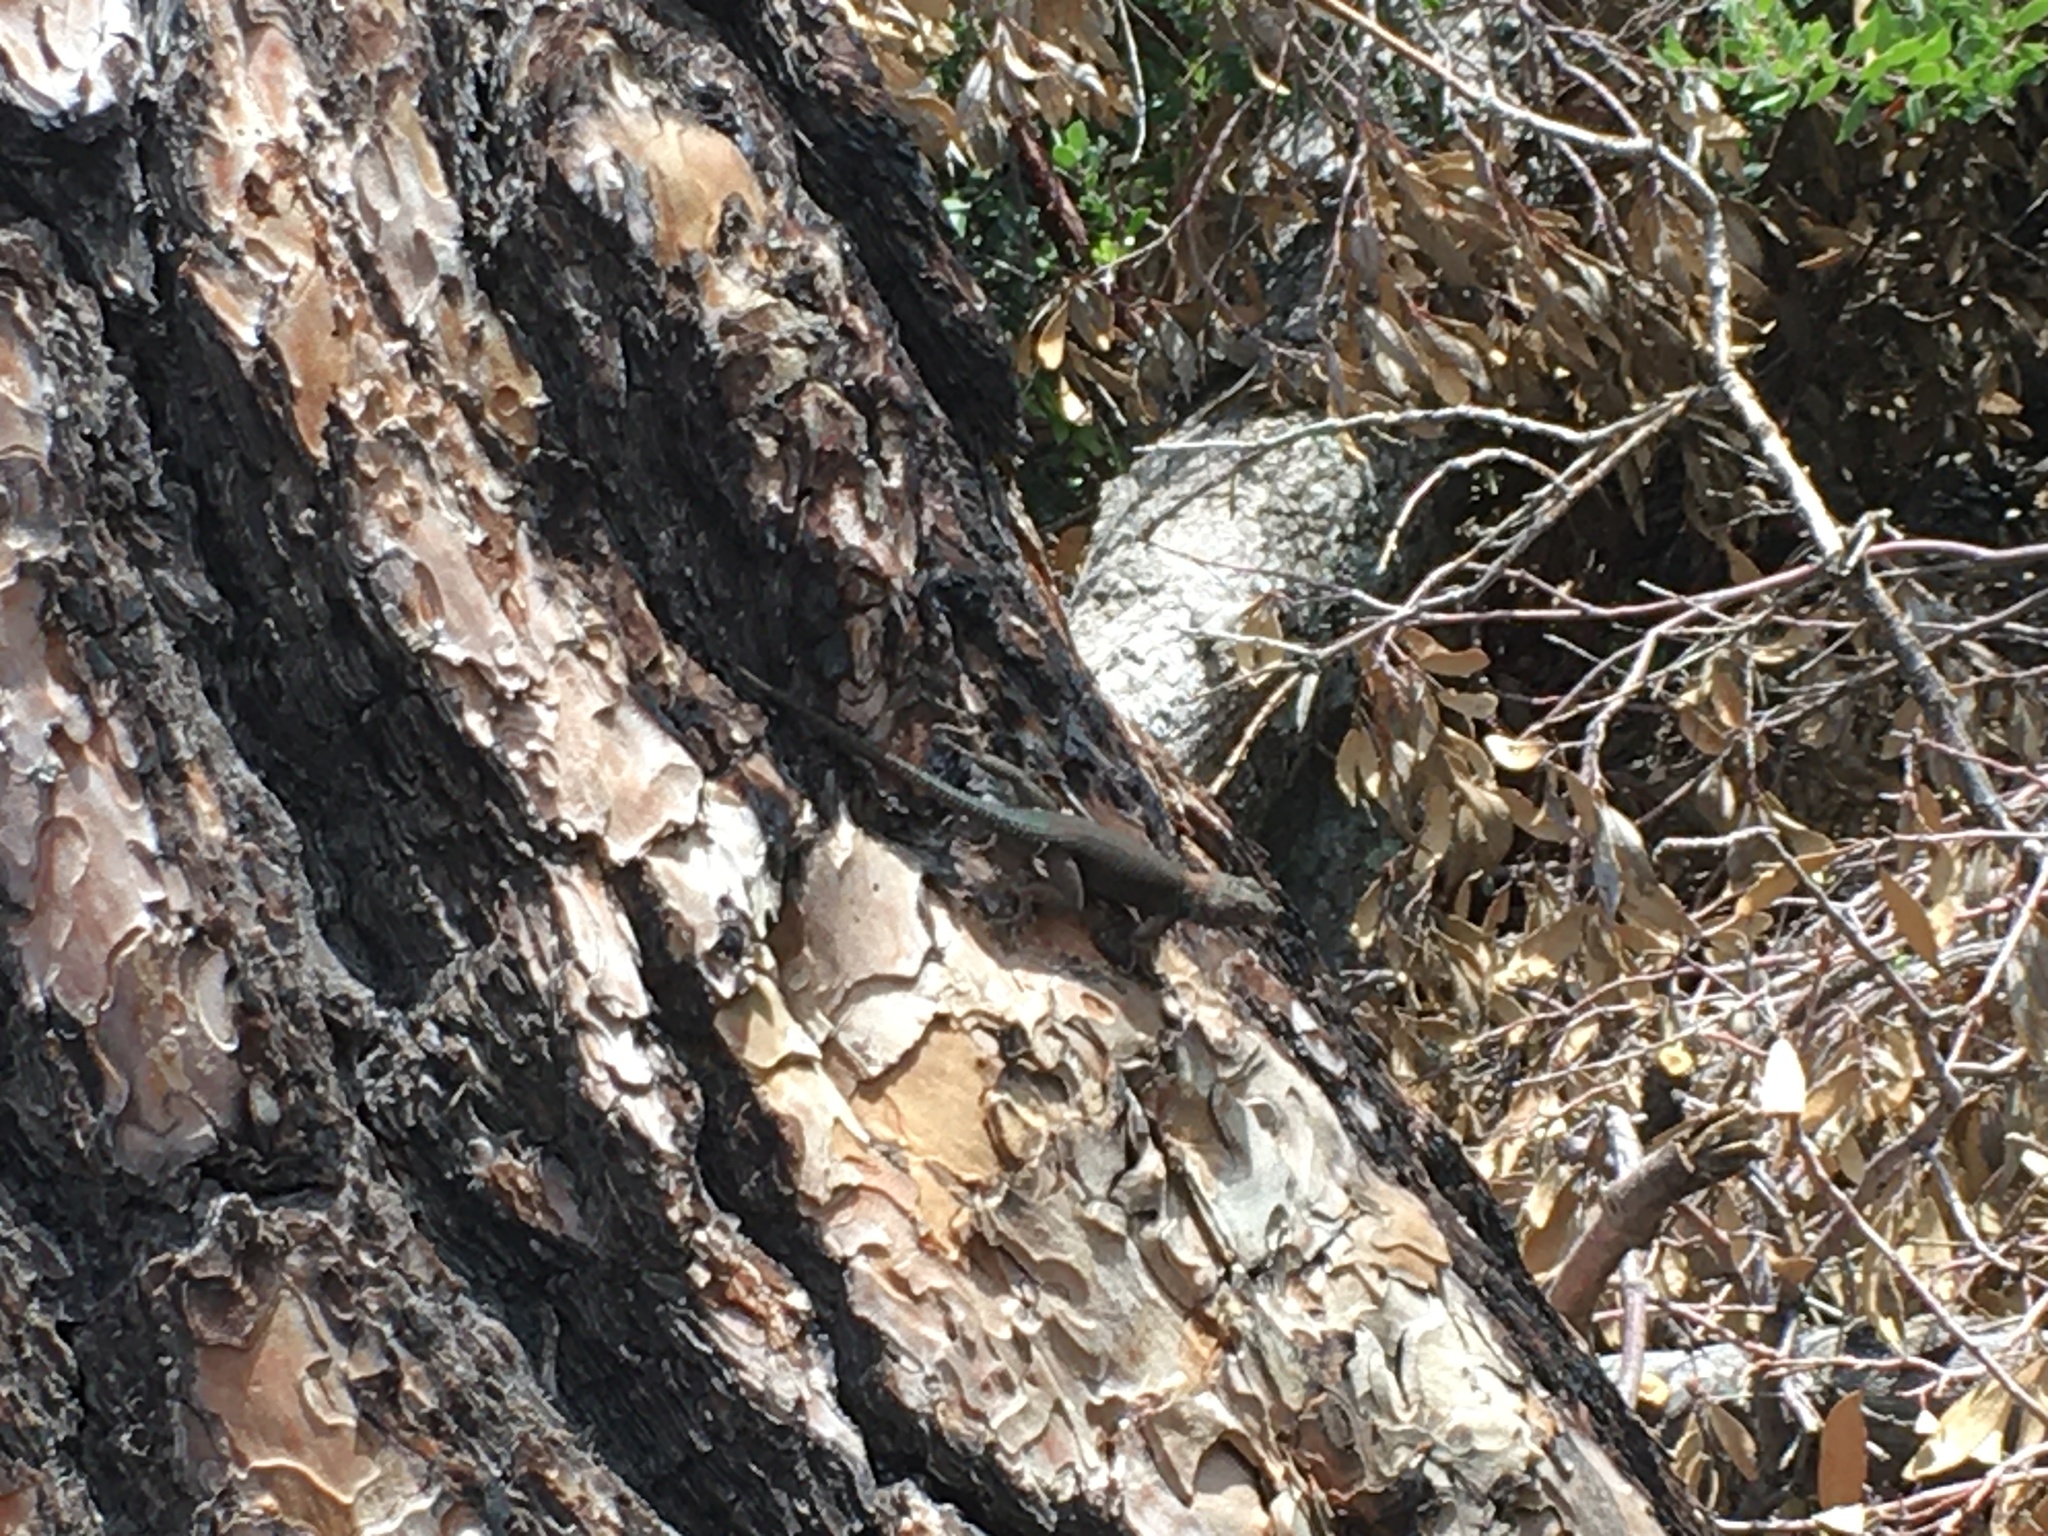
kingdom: Animalia
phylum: Chordata
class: Squamata
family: Phrynosomatidae
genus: Sceloporus
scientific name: Sceloporus jarrovii
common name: Yarrow's spiny lizard
